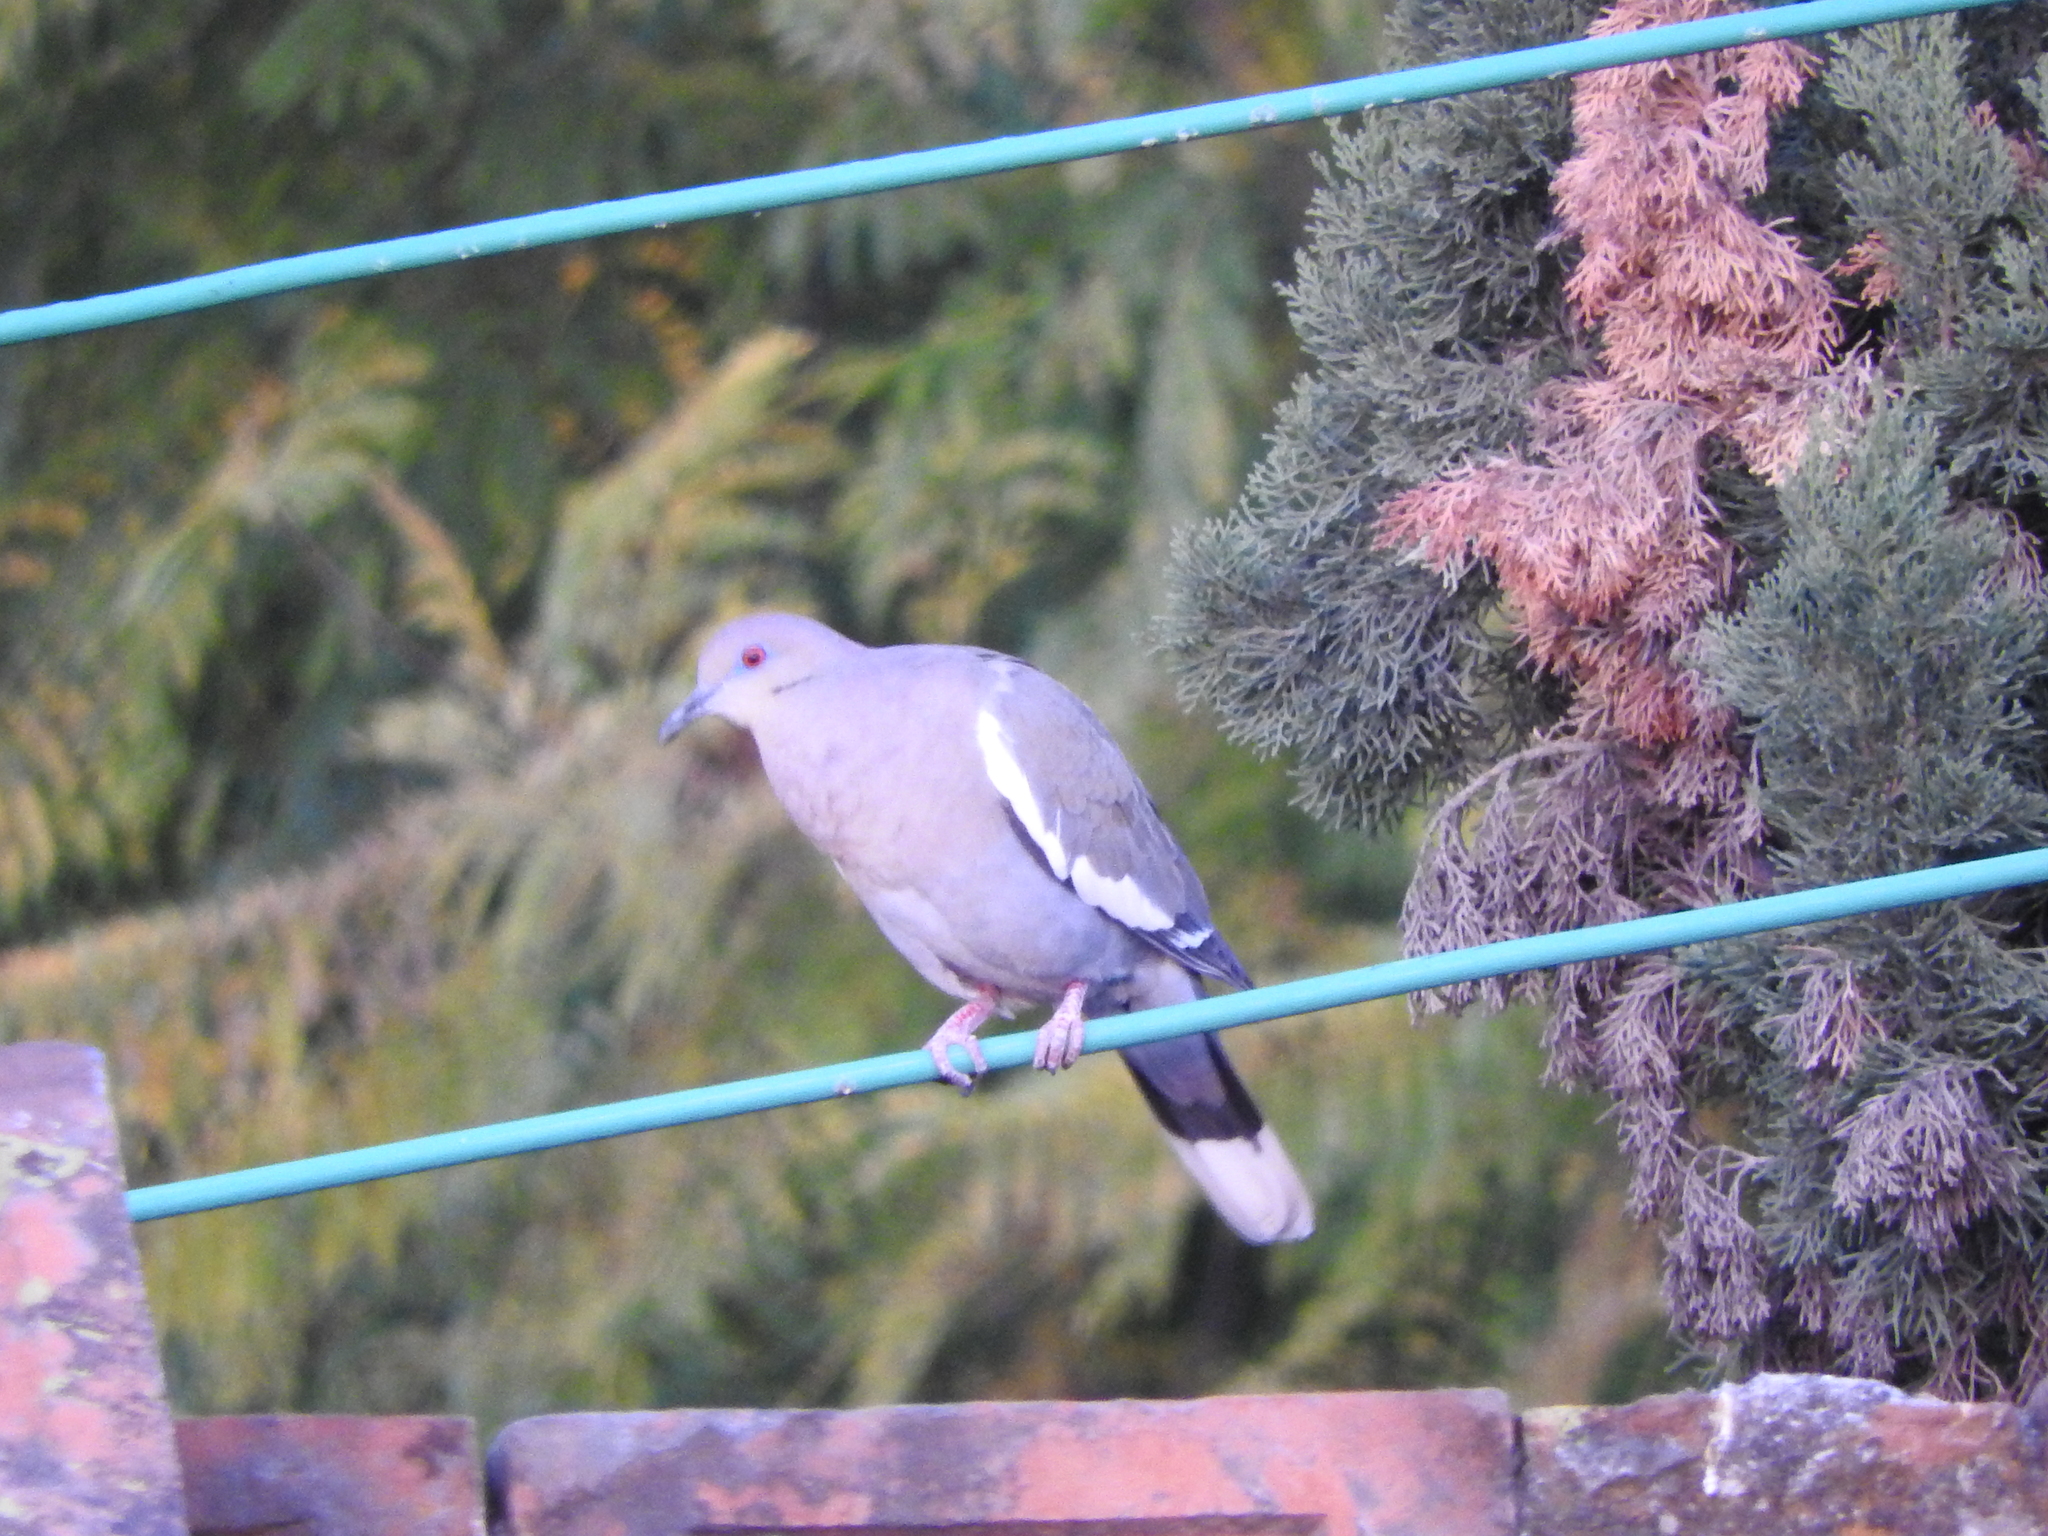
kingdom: Animalia
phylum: Chordata
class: Aves
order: Columbiformes
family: Columbidae
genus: Zenaida
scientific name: Zenaida asiatica
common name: White-winged dove
